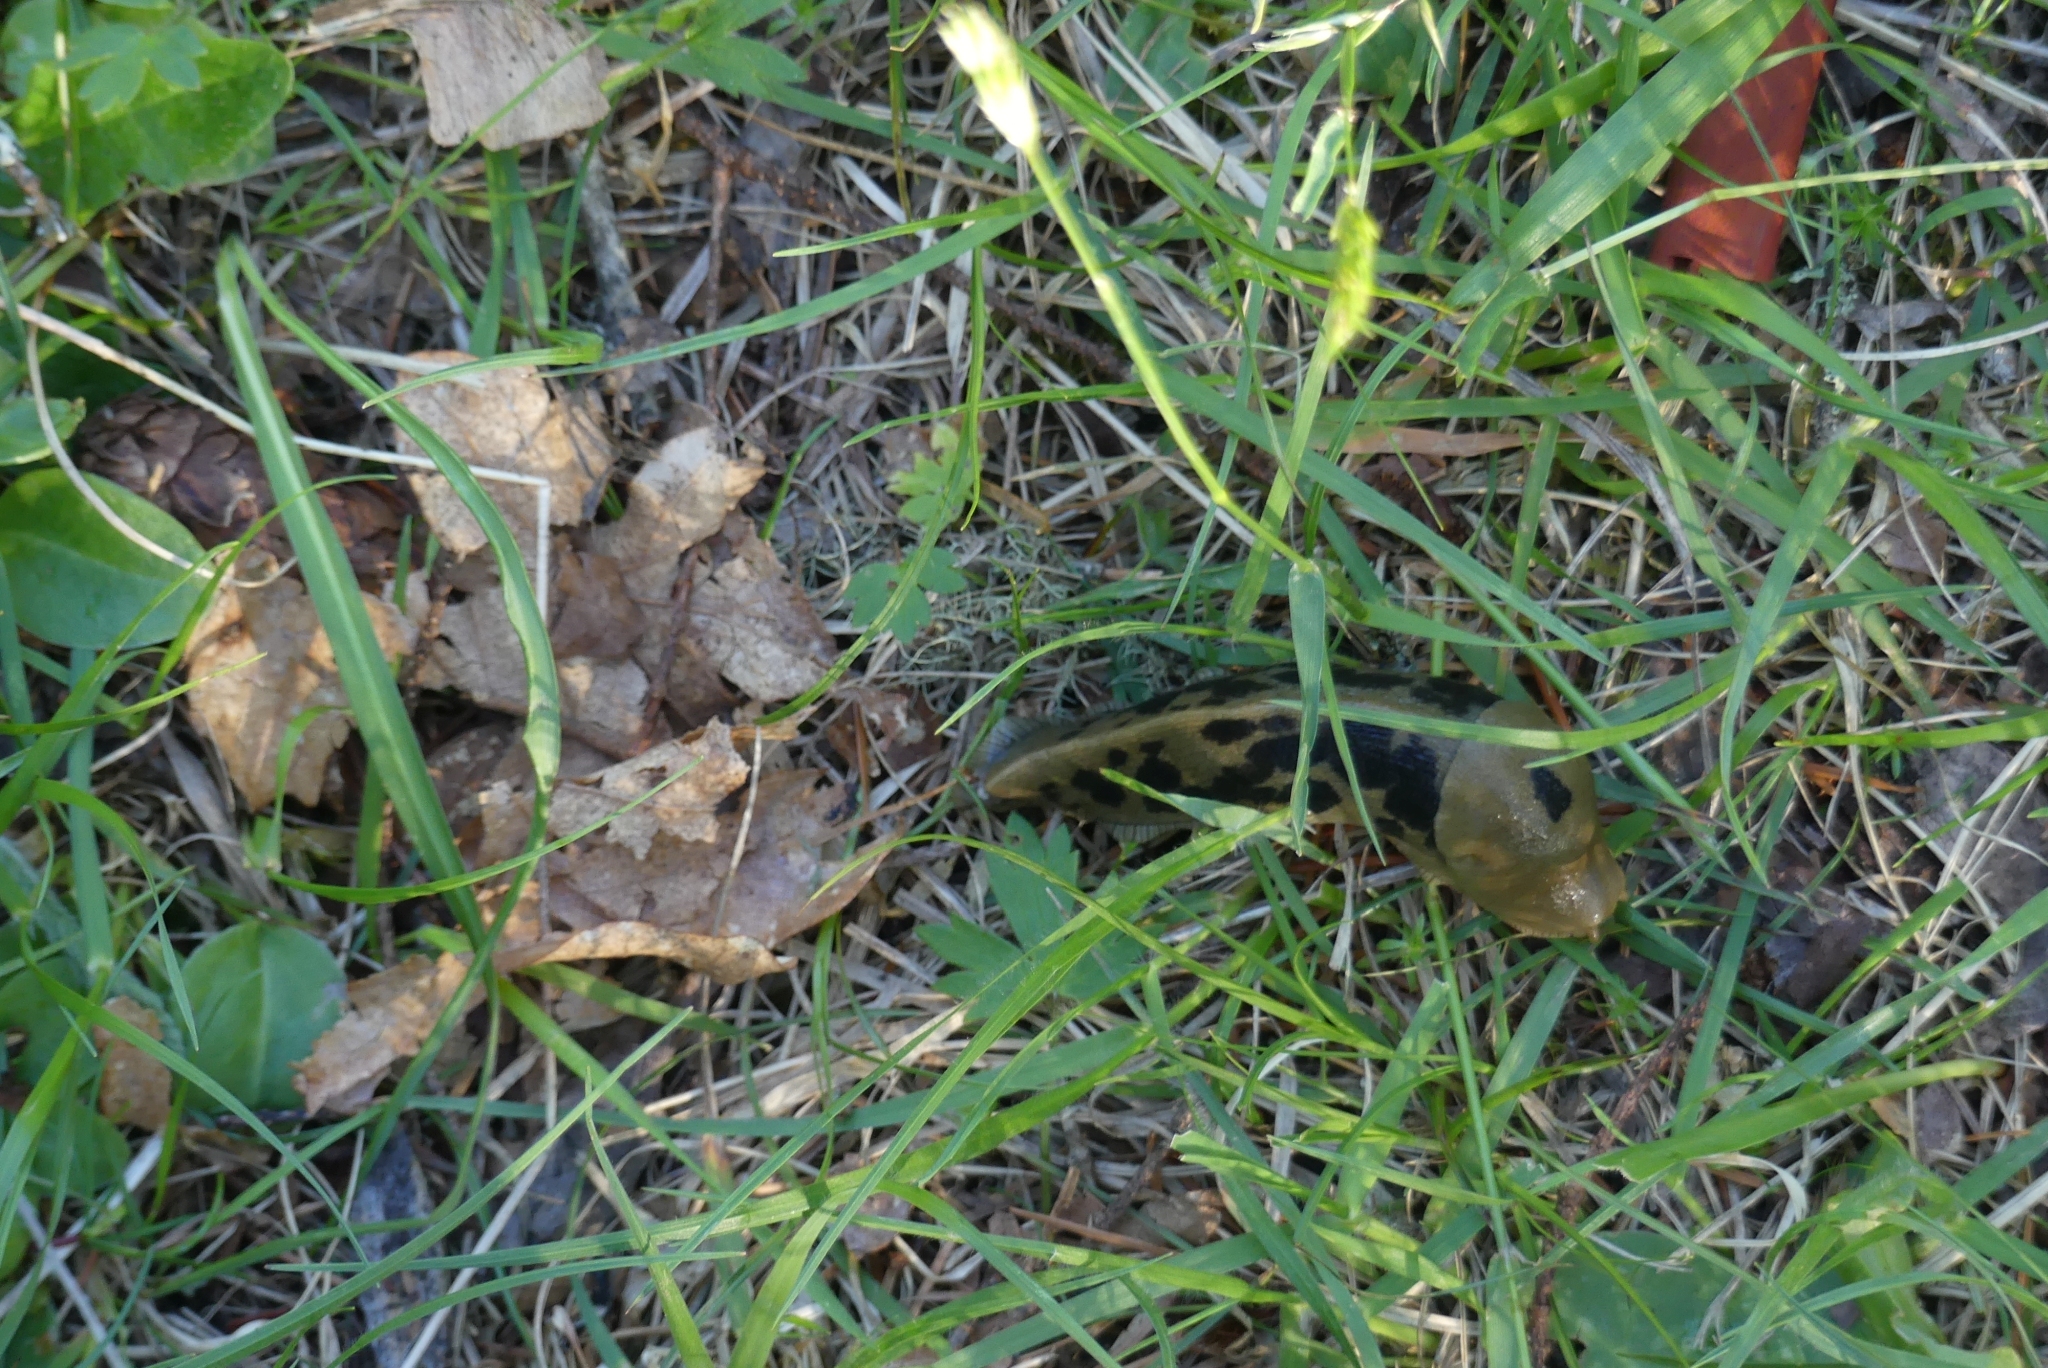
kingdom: Animalia
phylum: Mollusca
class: Gastropoda
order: Stylommatophora
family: Ariolimacidae
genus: Ariolimax
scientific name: Ariolimax columbianus
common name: Pacific banana slug
